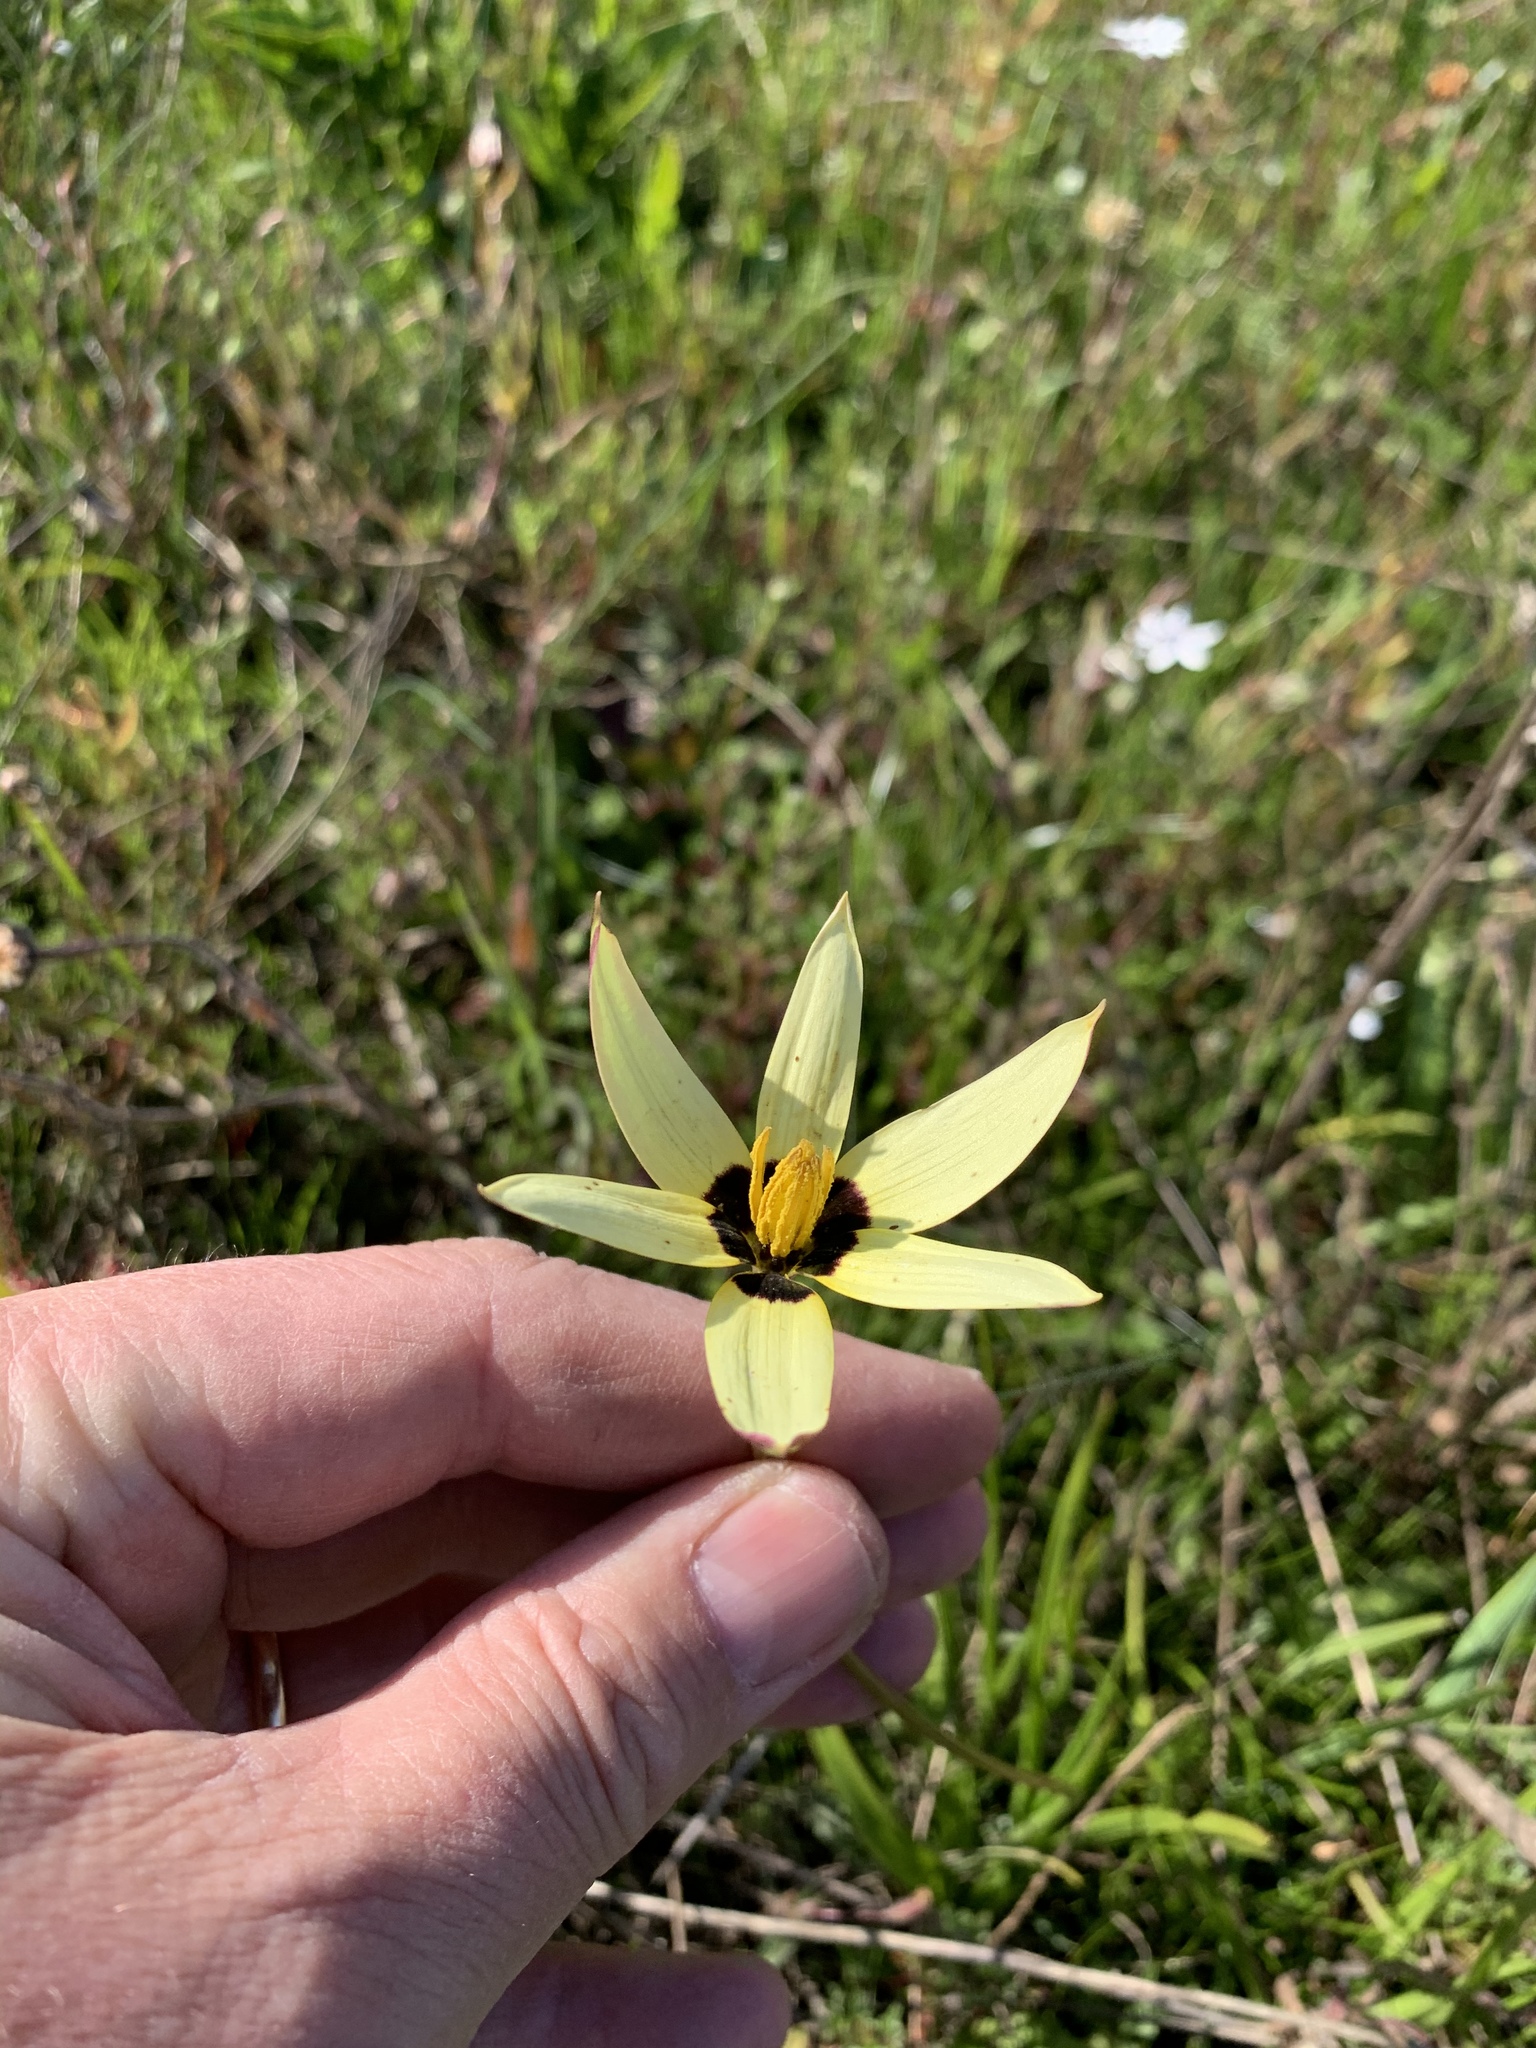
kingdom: Plantae
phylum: Tracheophyta
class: Liliopsida
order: Asparagales
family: Hypoxidaceae
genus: Pauridia
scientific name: Pauridia capensis
